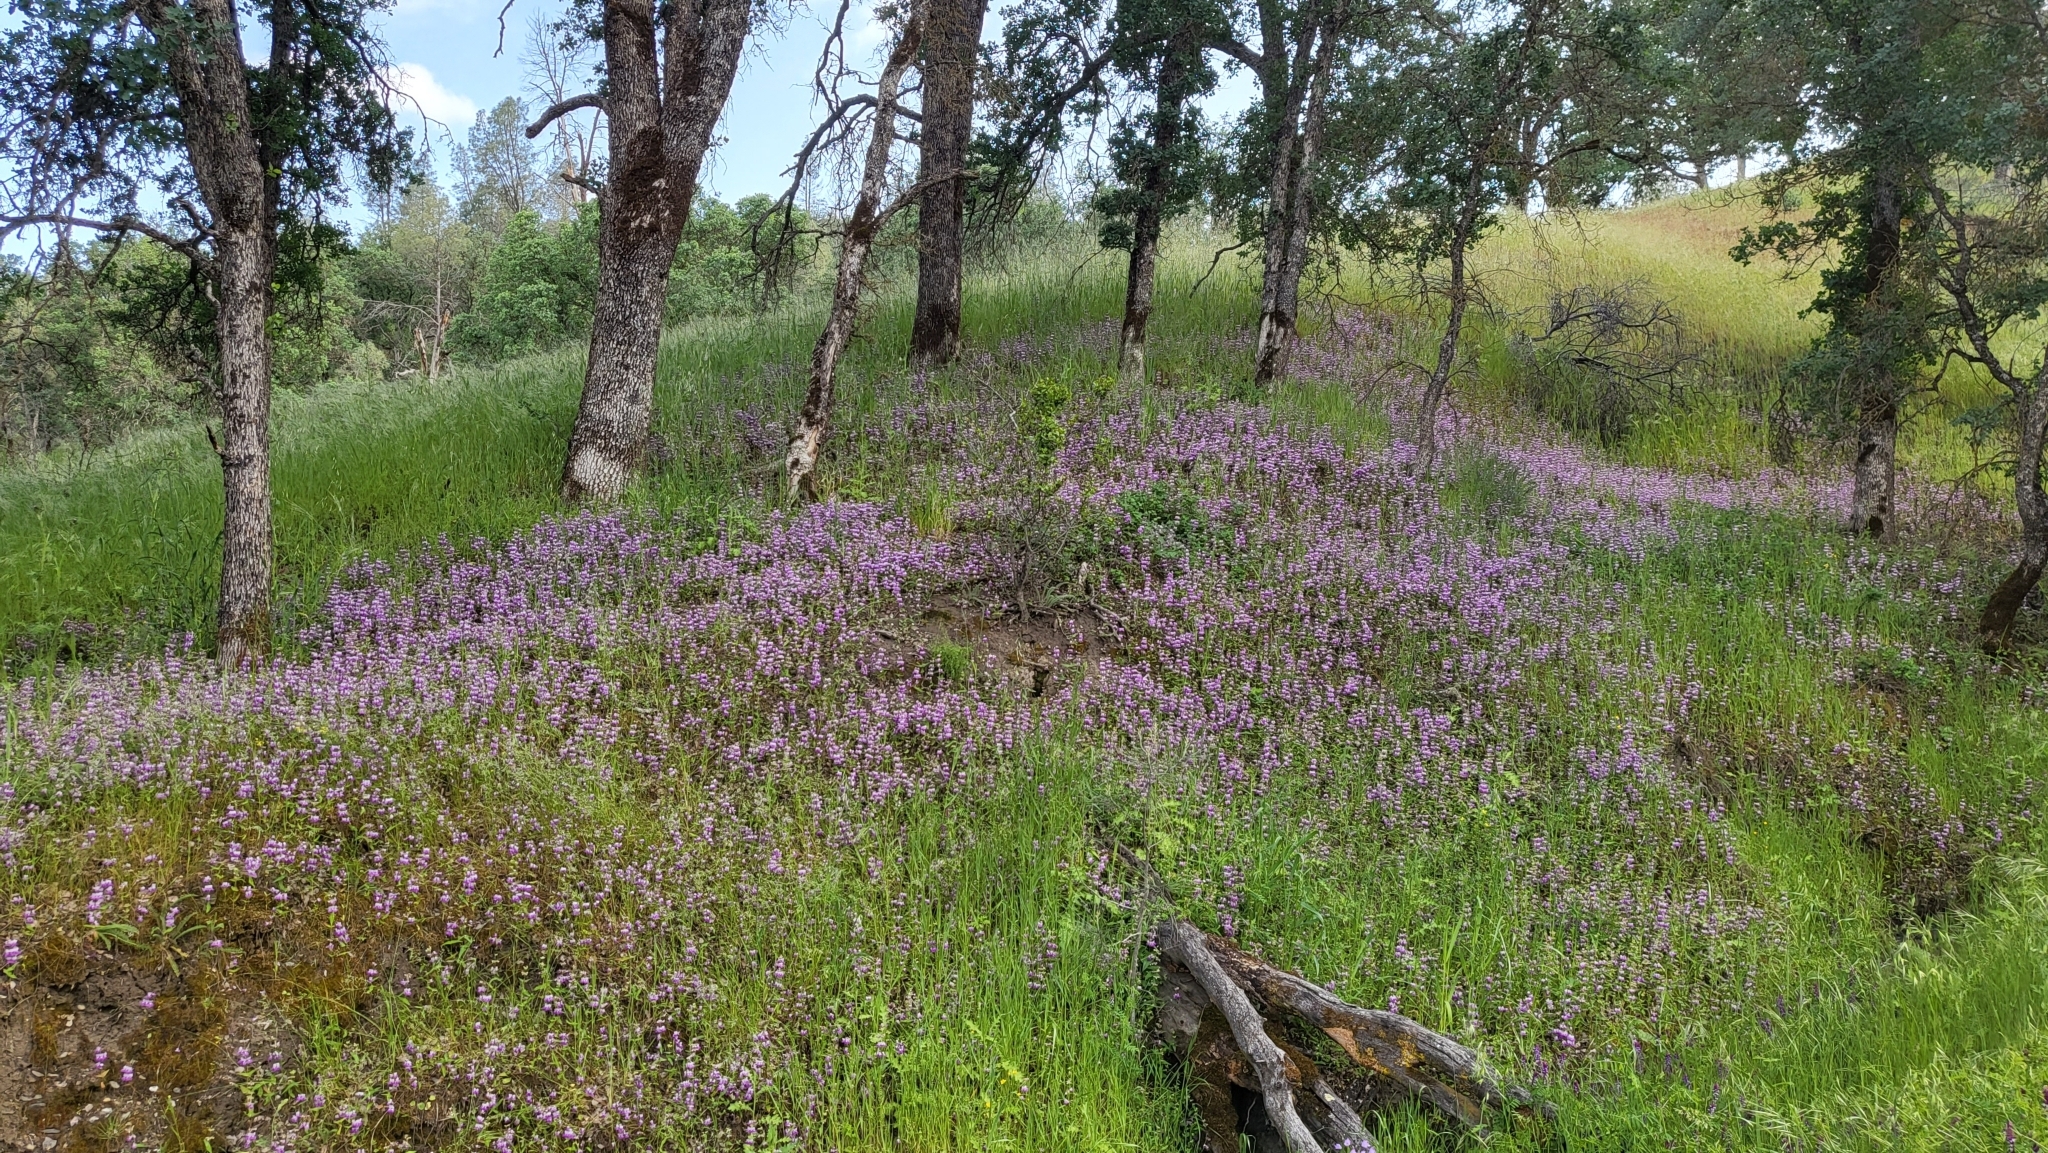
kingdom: Plantae
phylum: Tracheophyta
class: Magnoliopsida
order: Lamiales
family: Plantaginaceae
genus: Collinsia
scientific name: Collinsia heterophylla
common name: Chinese-houses
